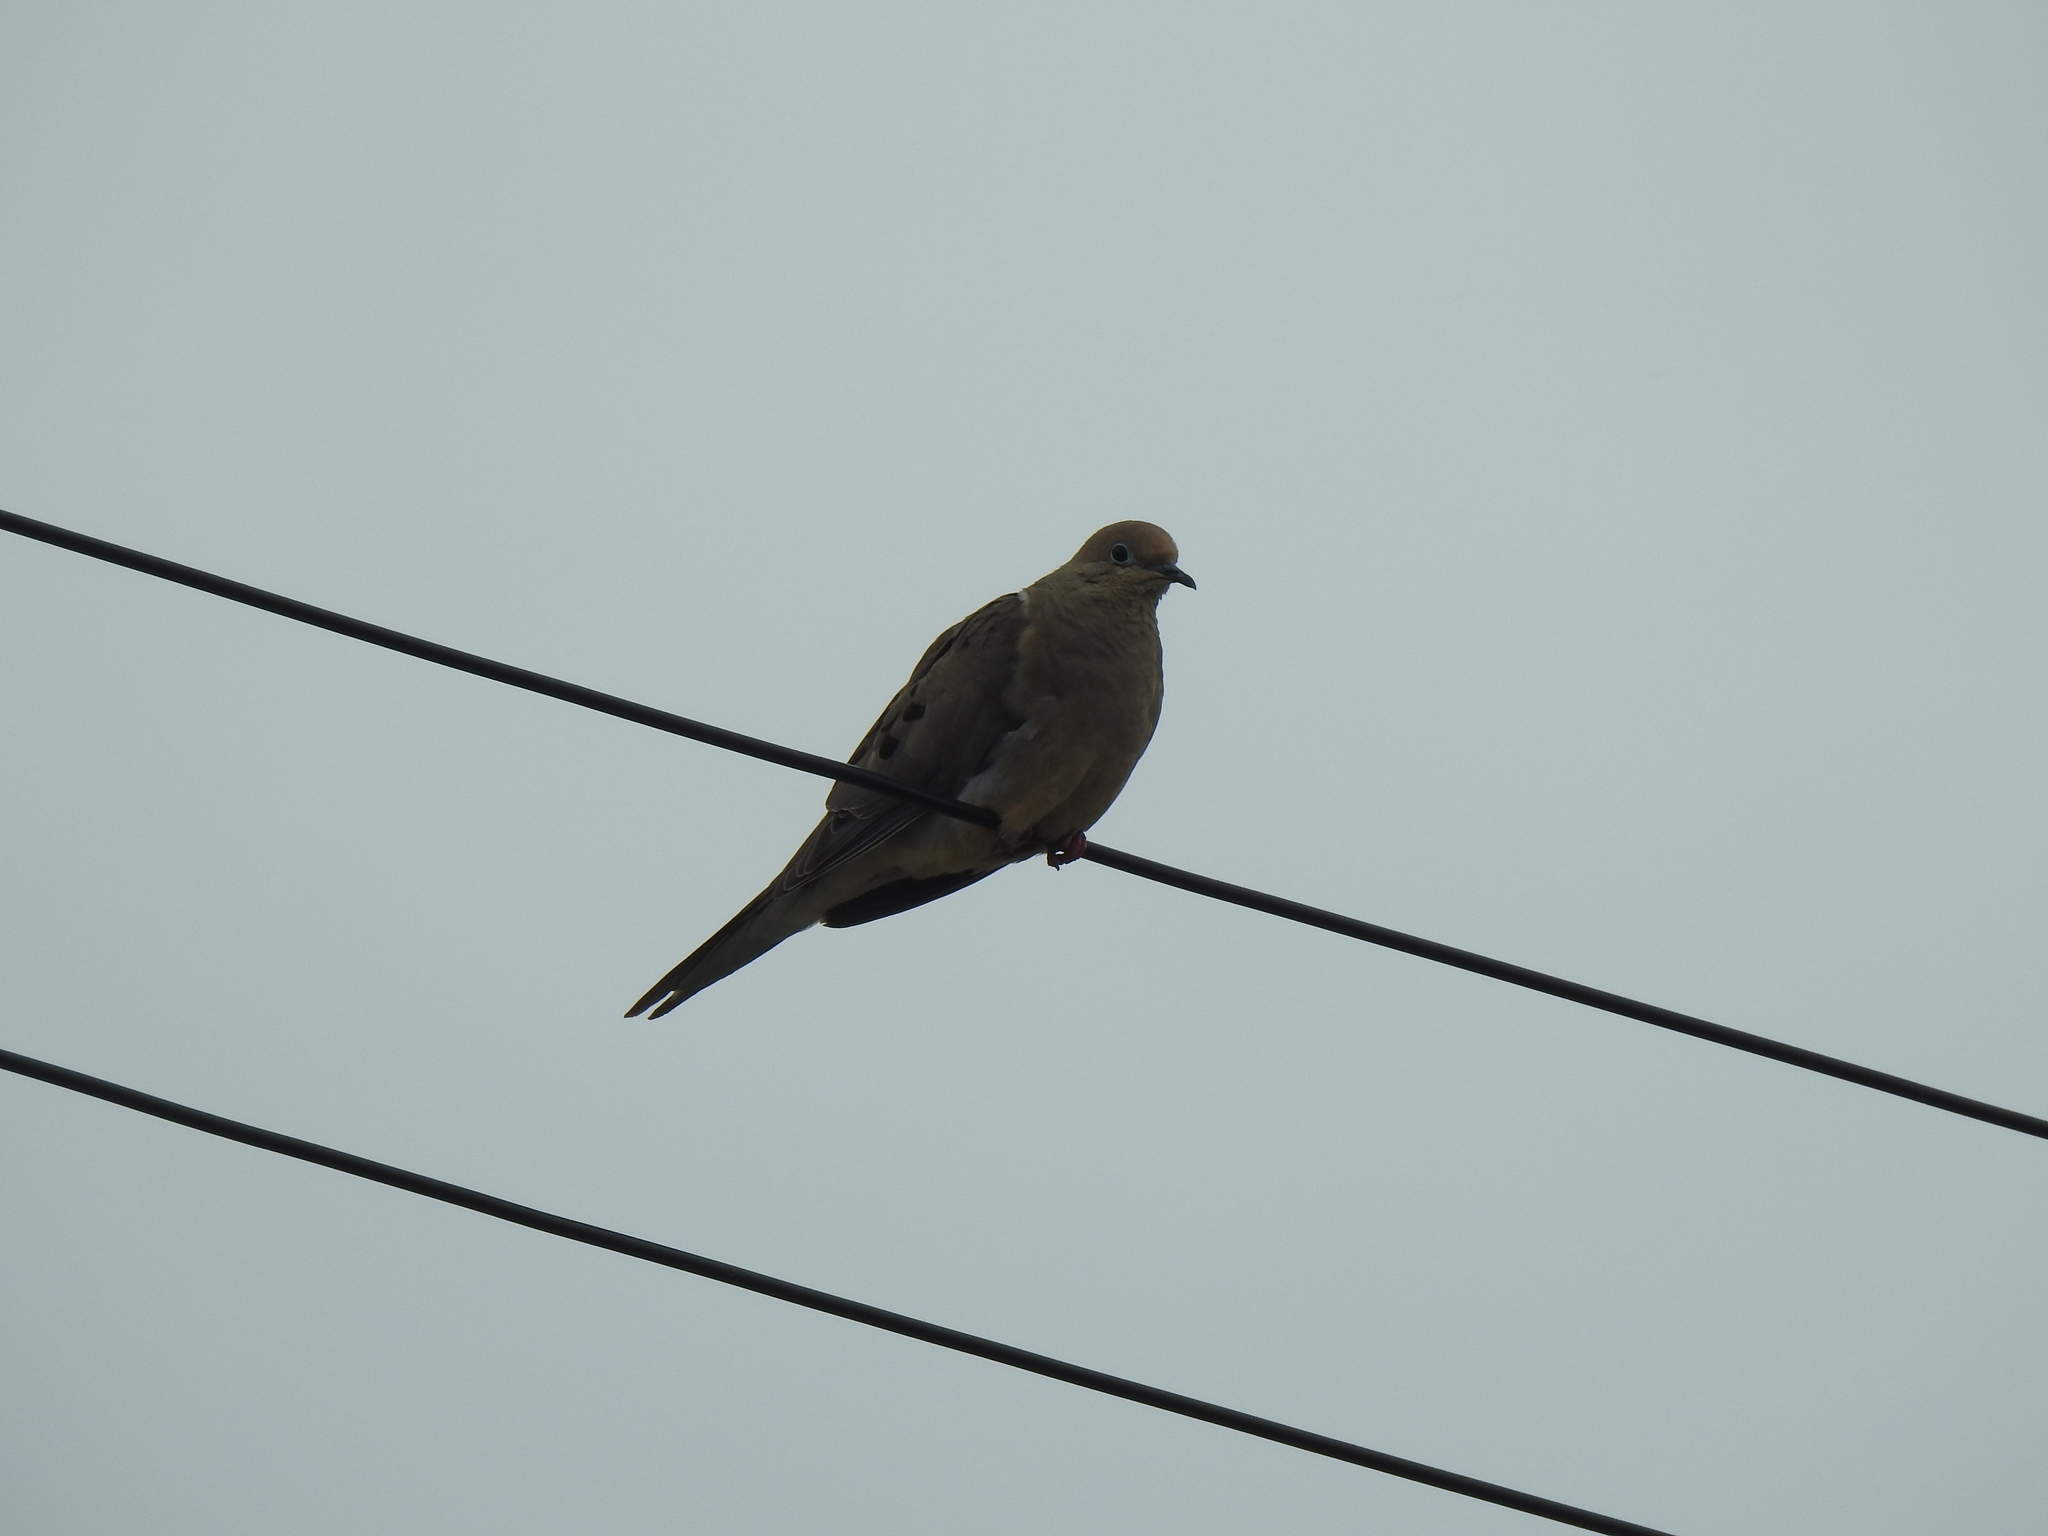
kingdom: Animalia
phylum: Chordata
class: Aves
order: Columbiformes
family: Columbidae
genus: Zenaida
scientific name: Zenaida macroura
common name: Mourning dove
